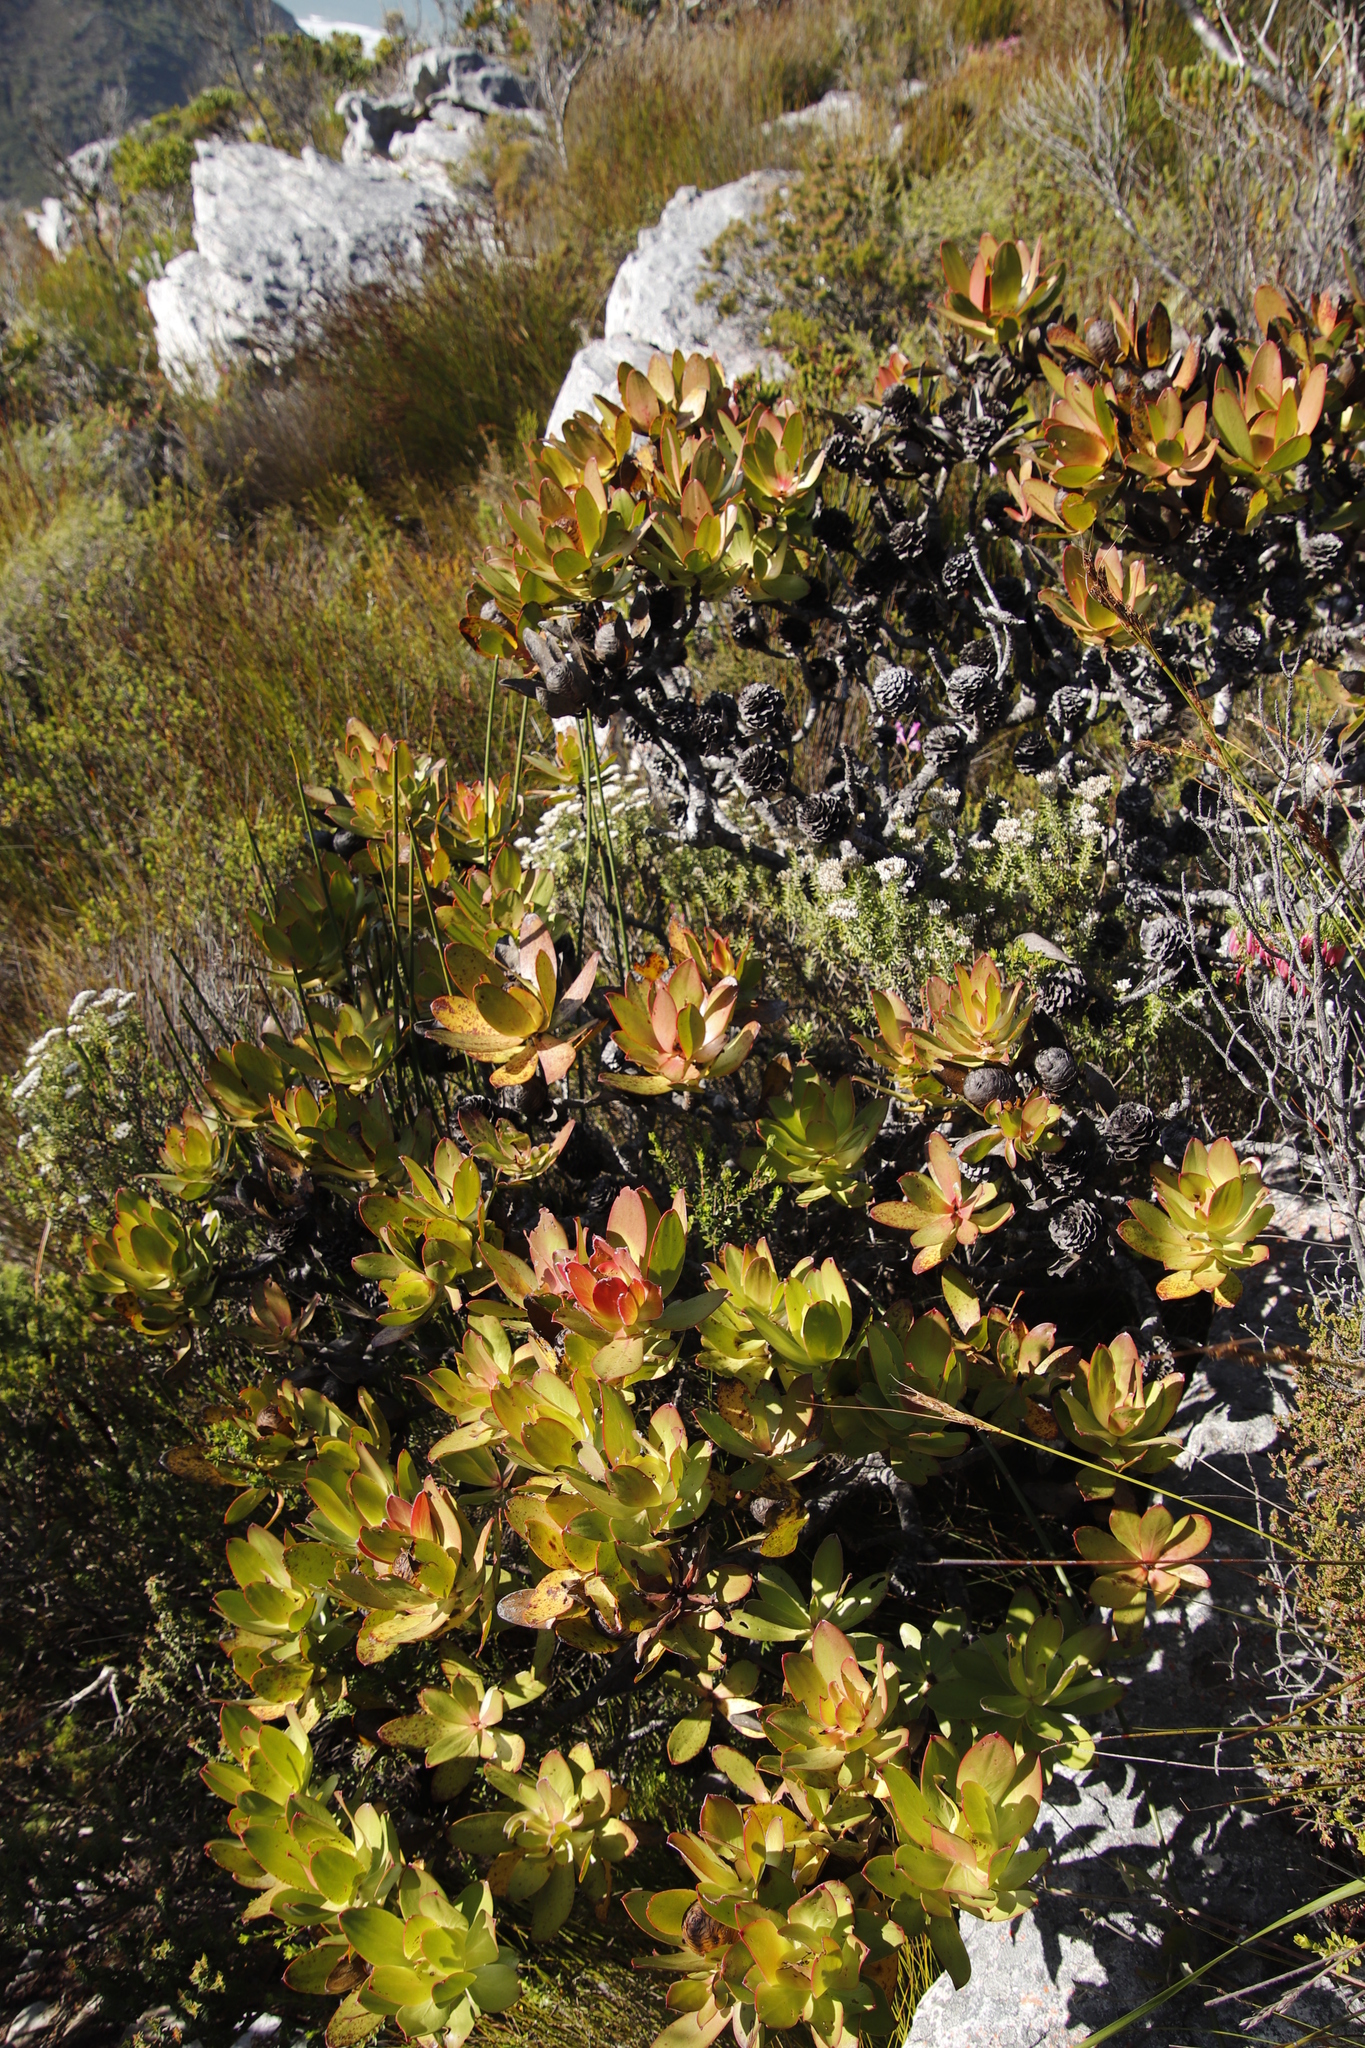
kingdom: Plantae
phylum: Tracheophyta
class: Magnoliopsida
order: Proteales
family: Proteaceae
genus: Leucadendron
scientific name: Leucadendron gandogeri
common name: Broad-leaf conebush
